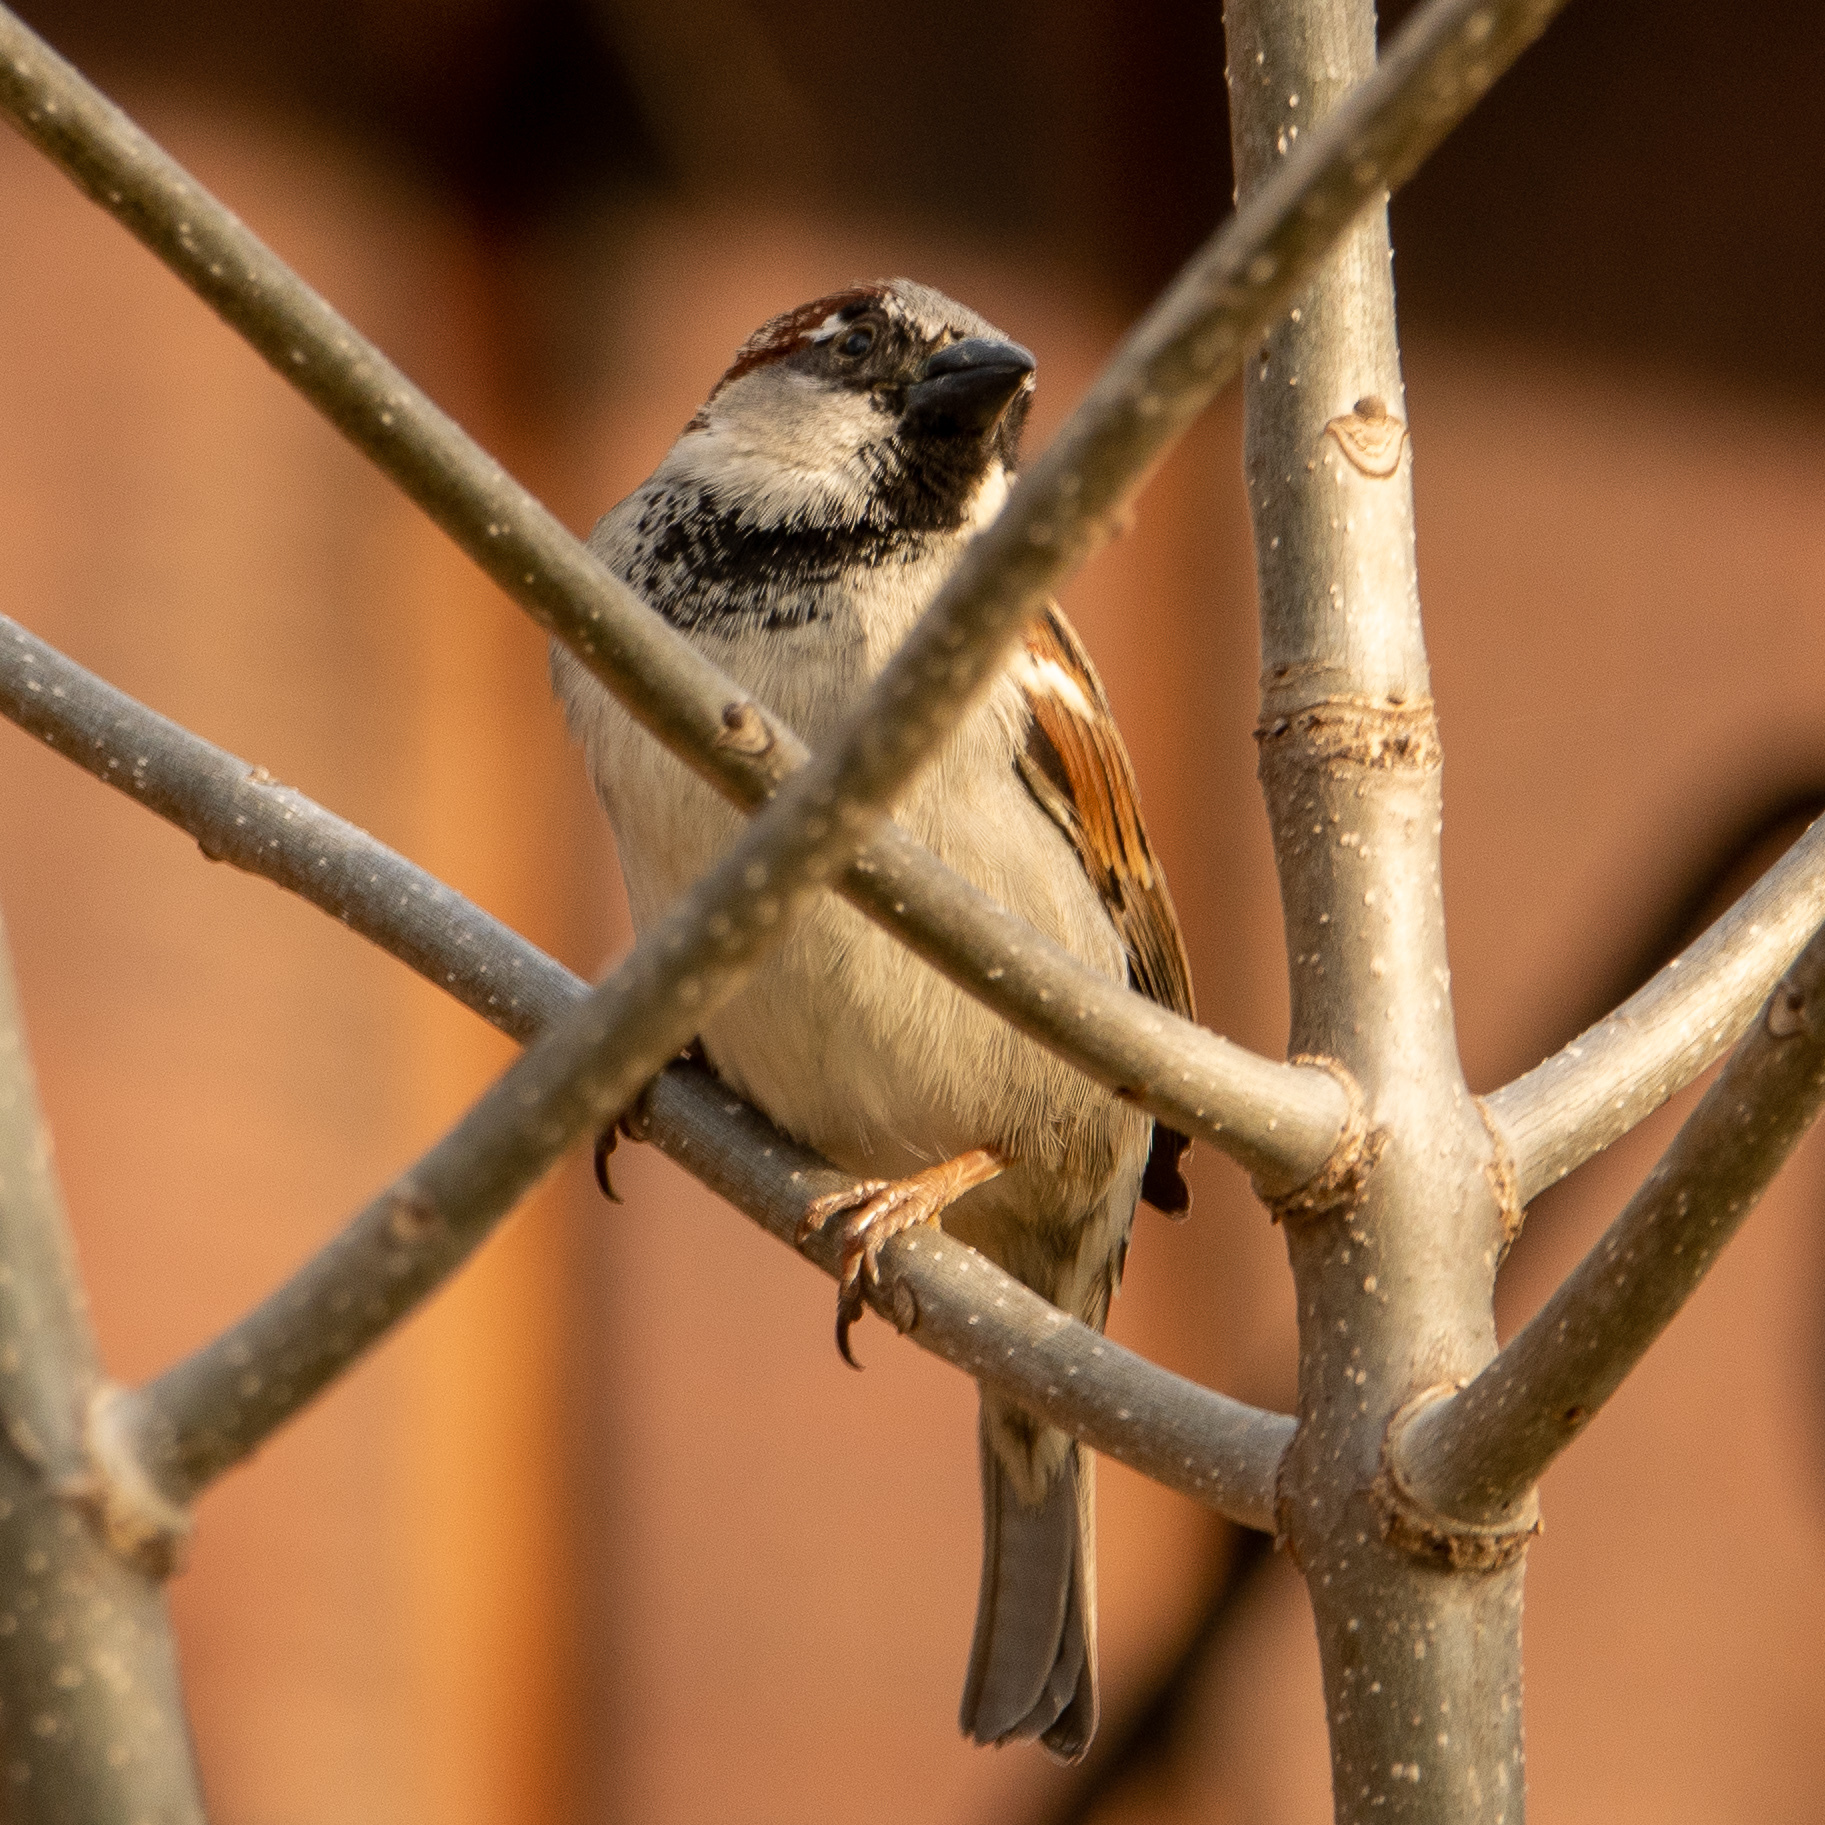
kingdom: Animalia
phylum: Chordata
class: Aves
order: Passeriformes
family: Passeridae
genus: Passer
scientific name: Passer domesticus
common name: House sparrow
